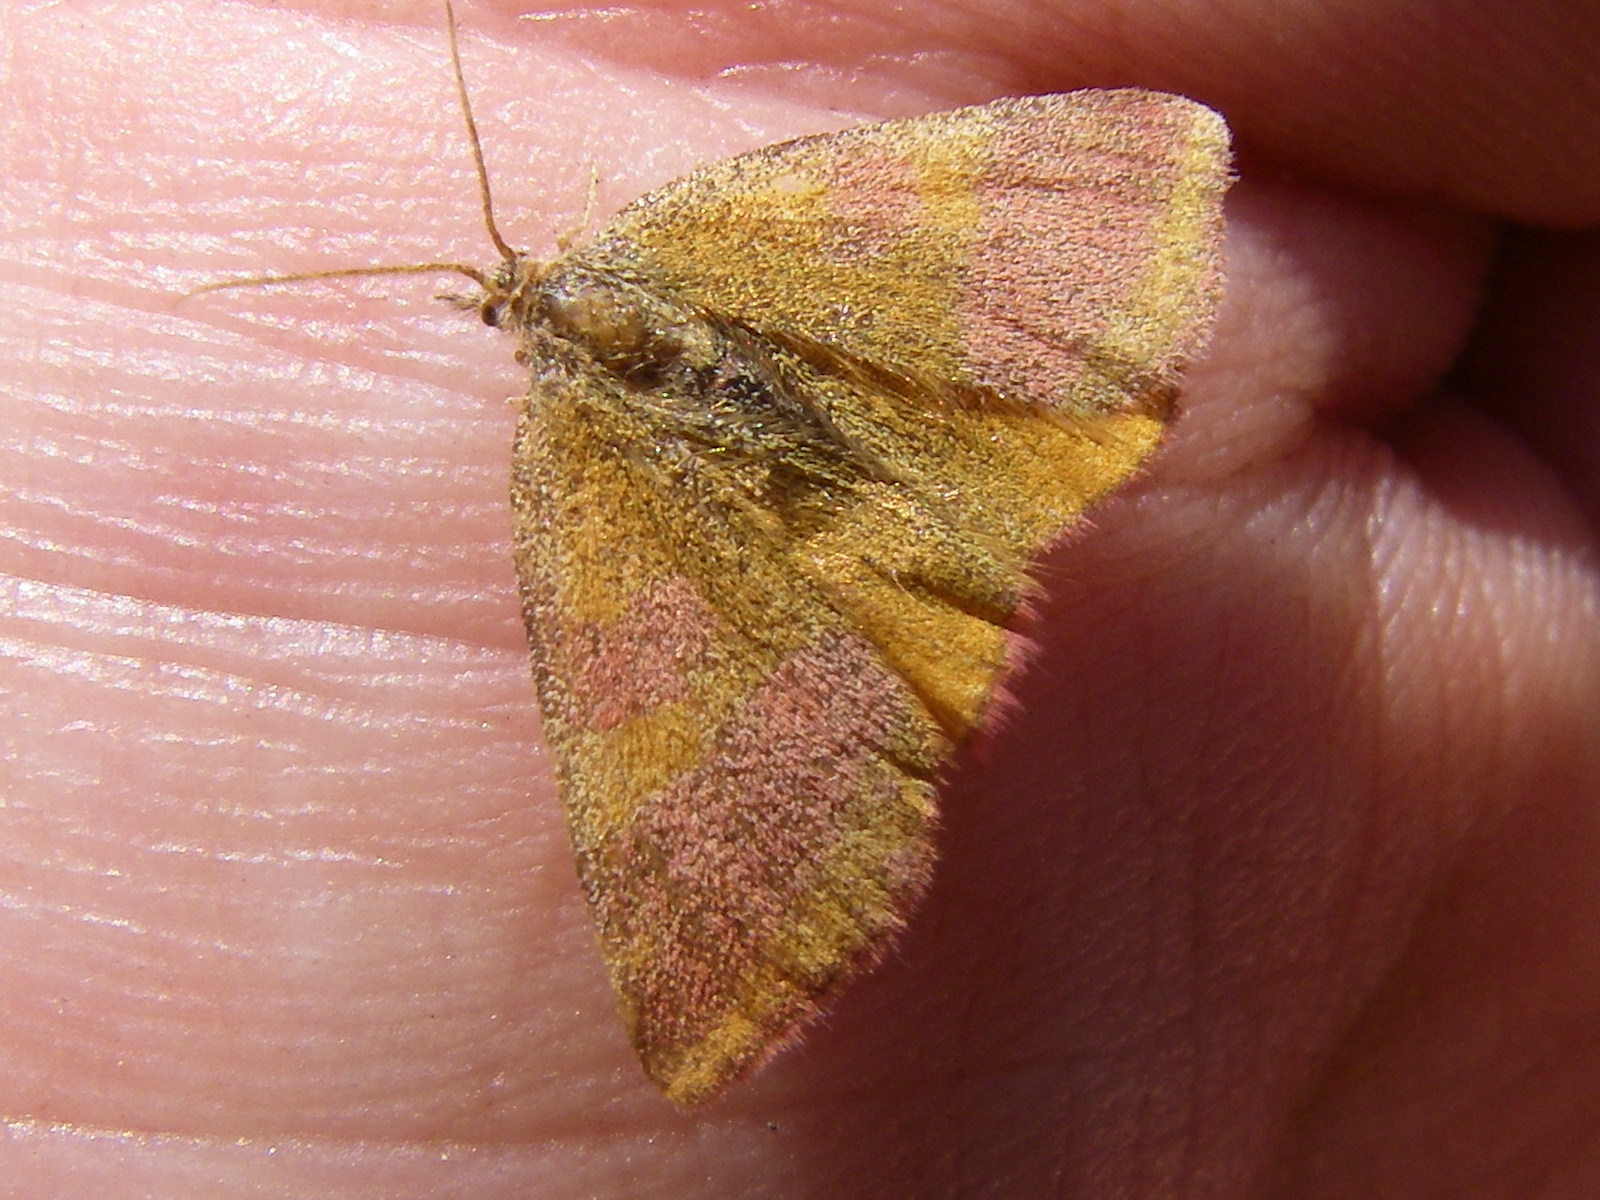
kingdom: Animalia
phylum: Arthropoda
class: Insecta
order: Lepidoptera
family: Geometridae
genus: Lythria
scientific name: Lythria cruentaria
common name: Purple-barred yellow
